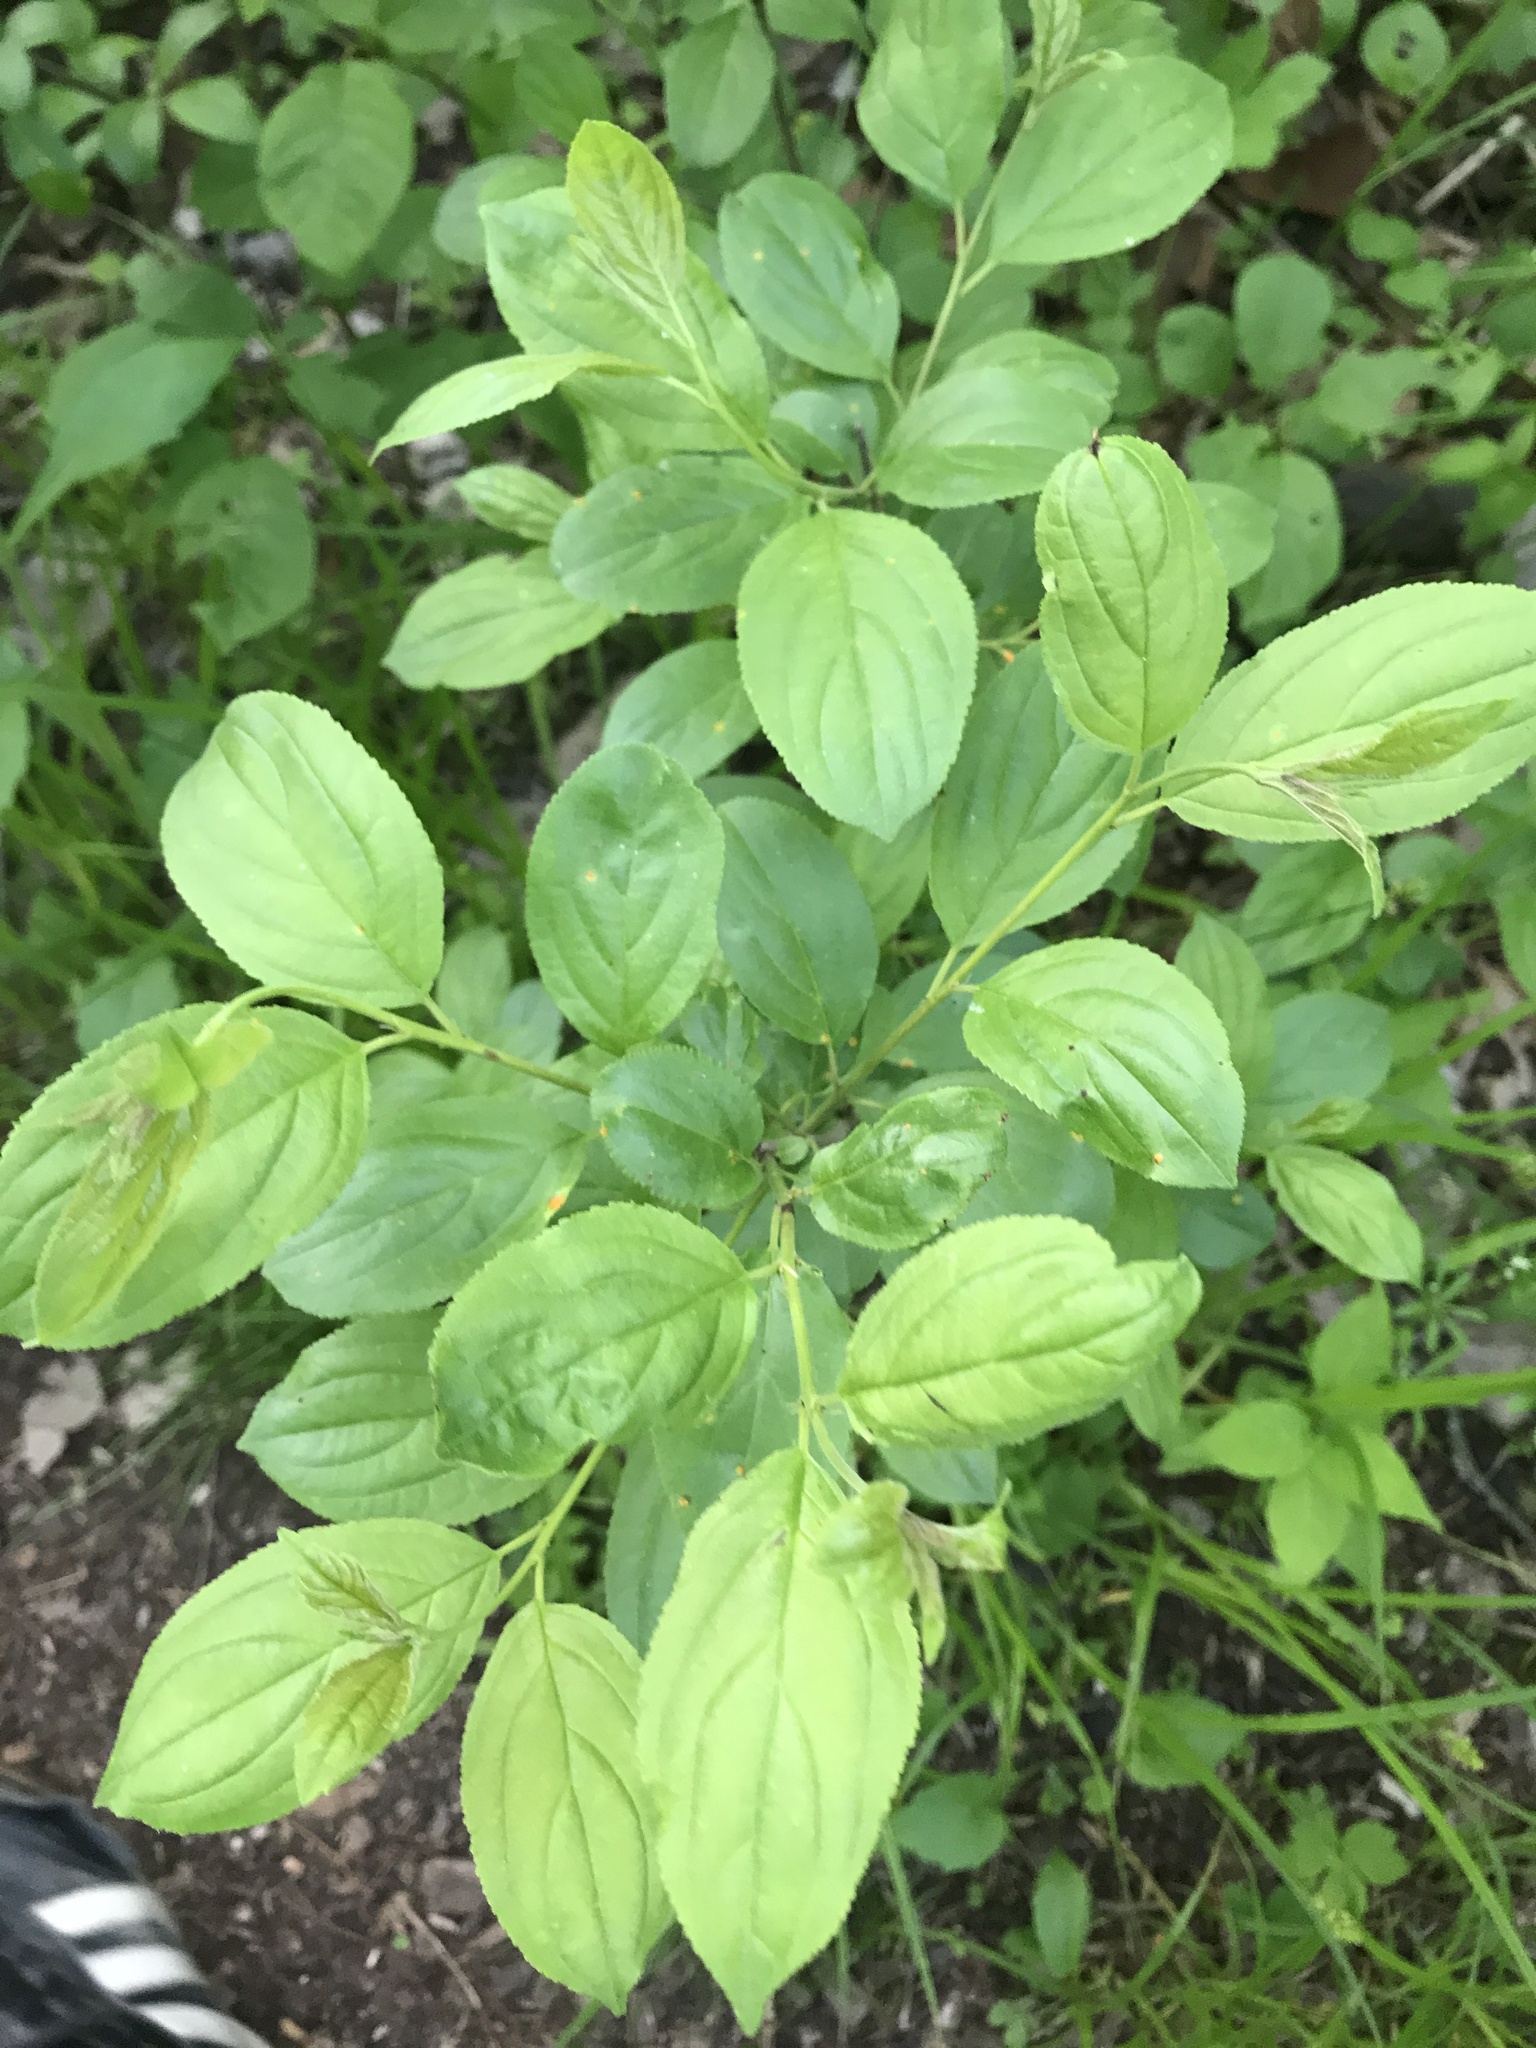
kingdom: Plantae
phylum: Tracheophyta
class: Magnoliopsida
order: Rosales
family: Rhamnaceae
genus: Rhamnus
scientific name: Rhamnus cathartica
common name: Common buckthorn
